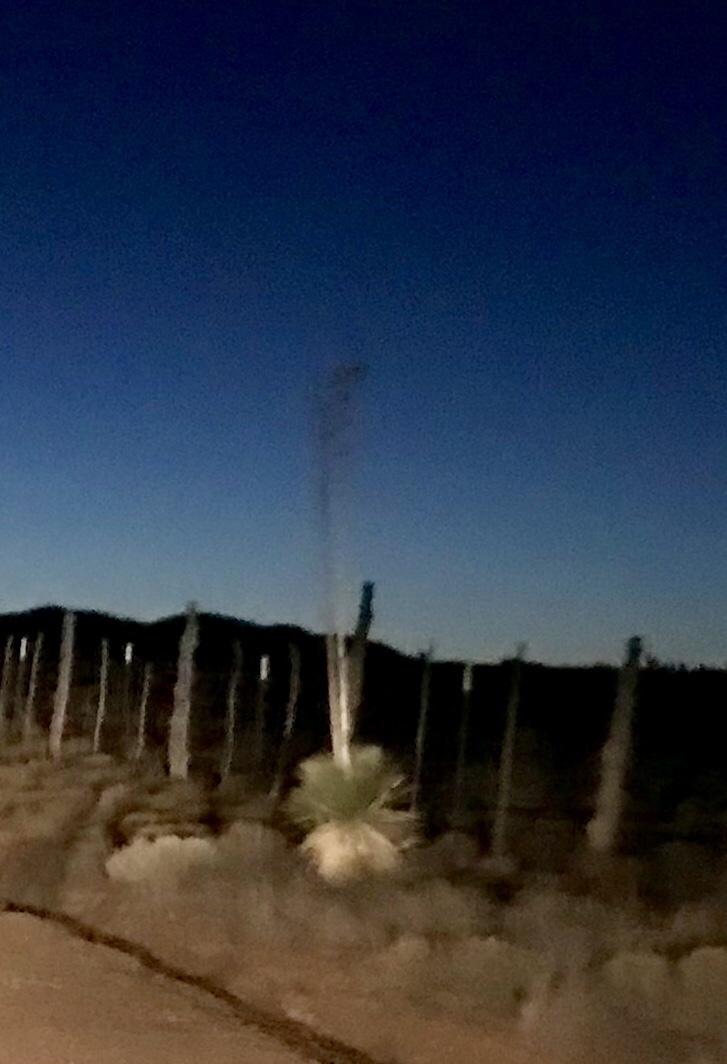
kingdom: Plantae
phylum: Tracheophyta
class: Liliopsida
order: Asparagales
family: Asparagaceae
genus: Yucca
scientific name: Yucca elata
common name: Palmella
